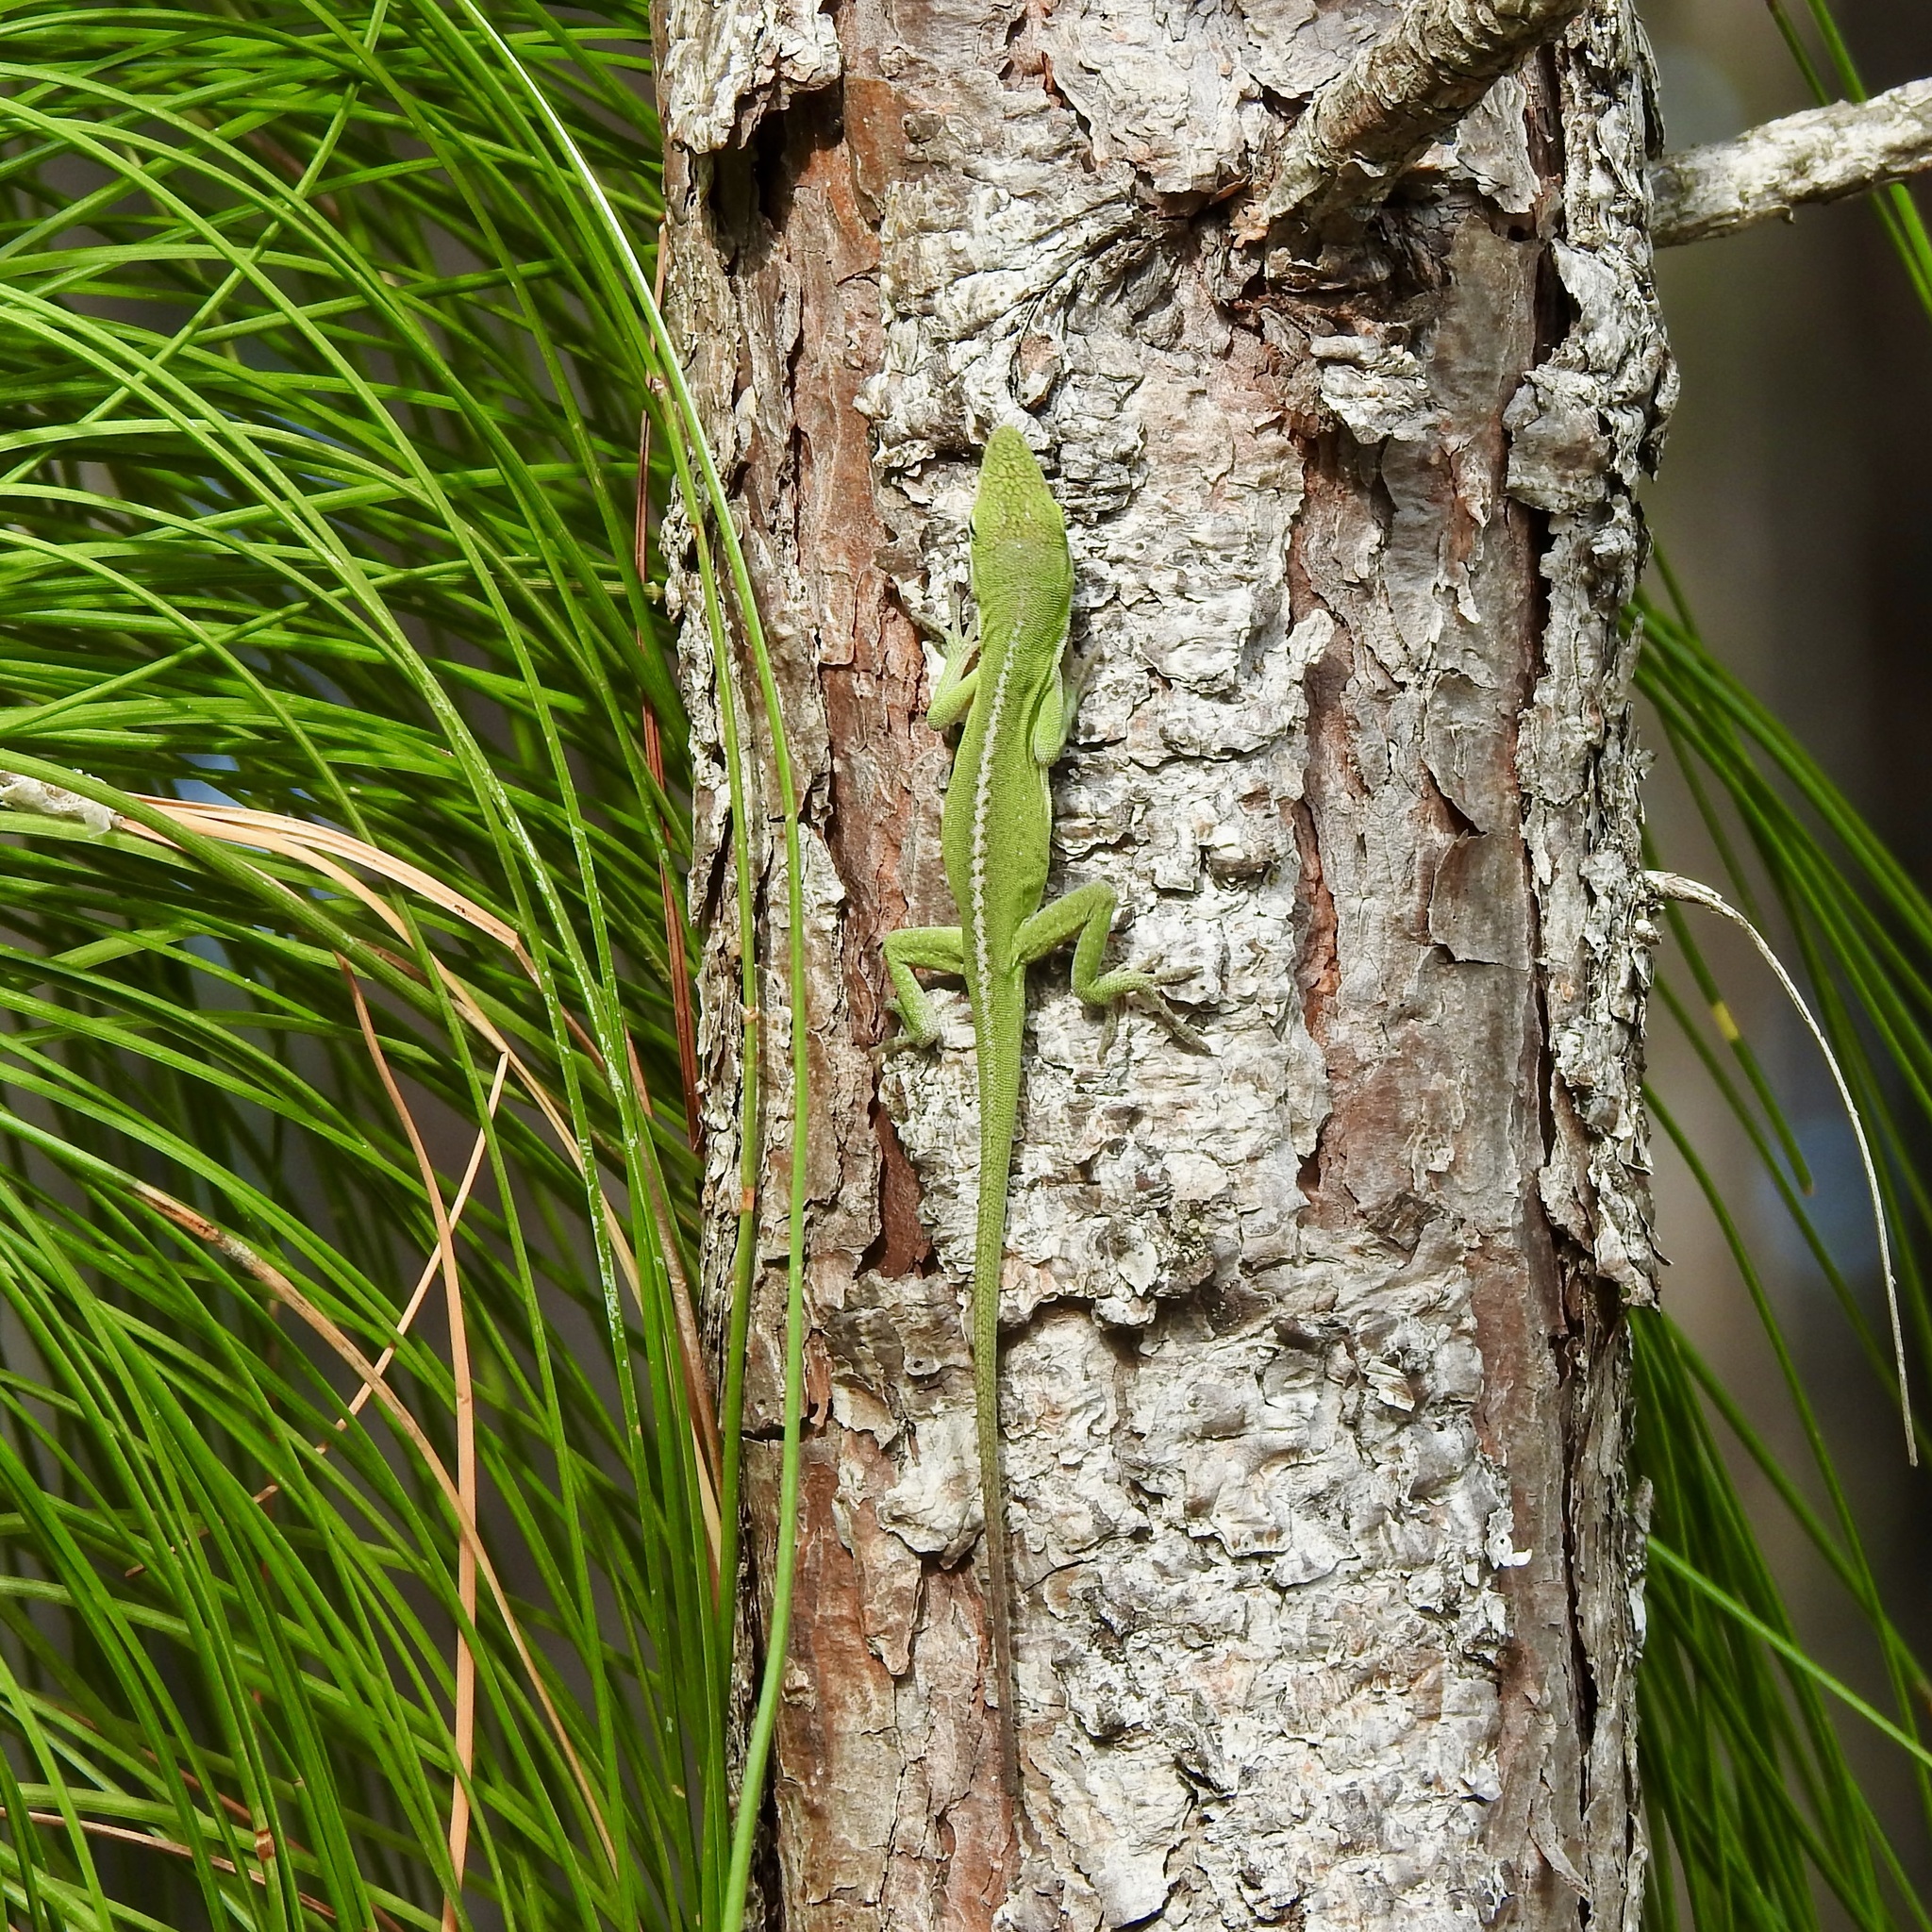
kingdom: Animalia
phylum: Chordata
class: Squamata
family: Dactyloidae
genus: Anolis
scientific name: Anolis carolinensis
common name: Green anole
